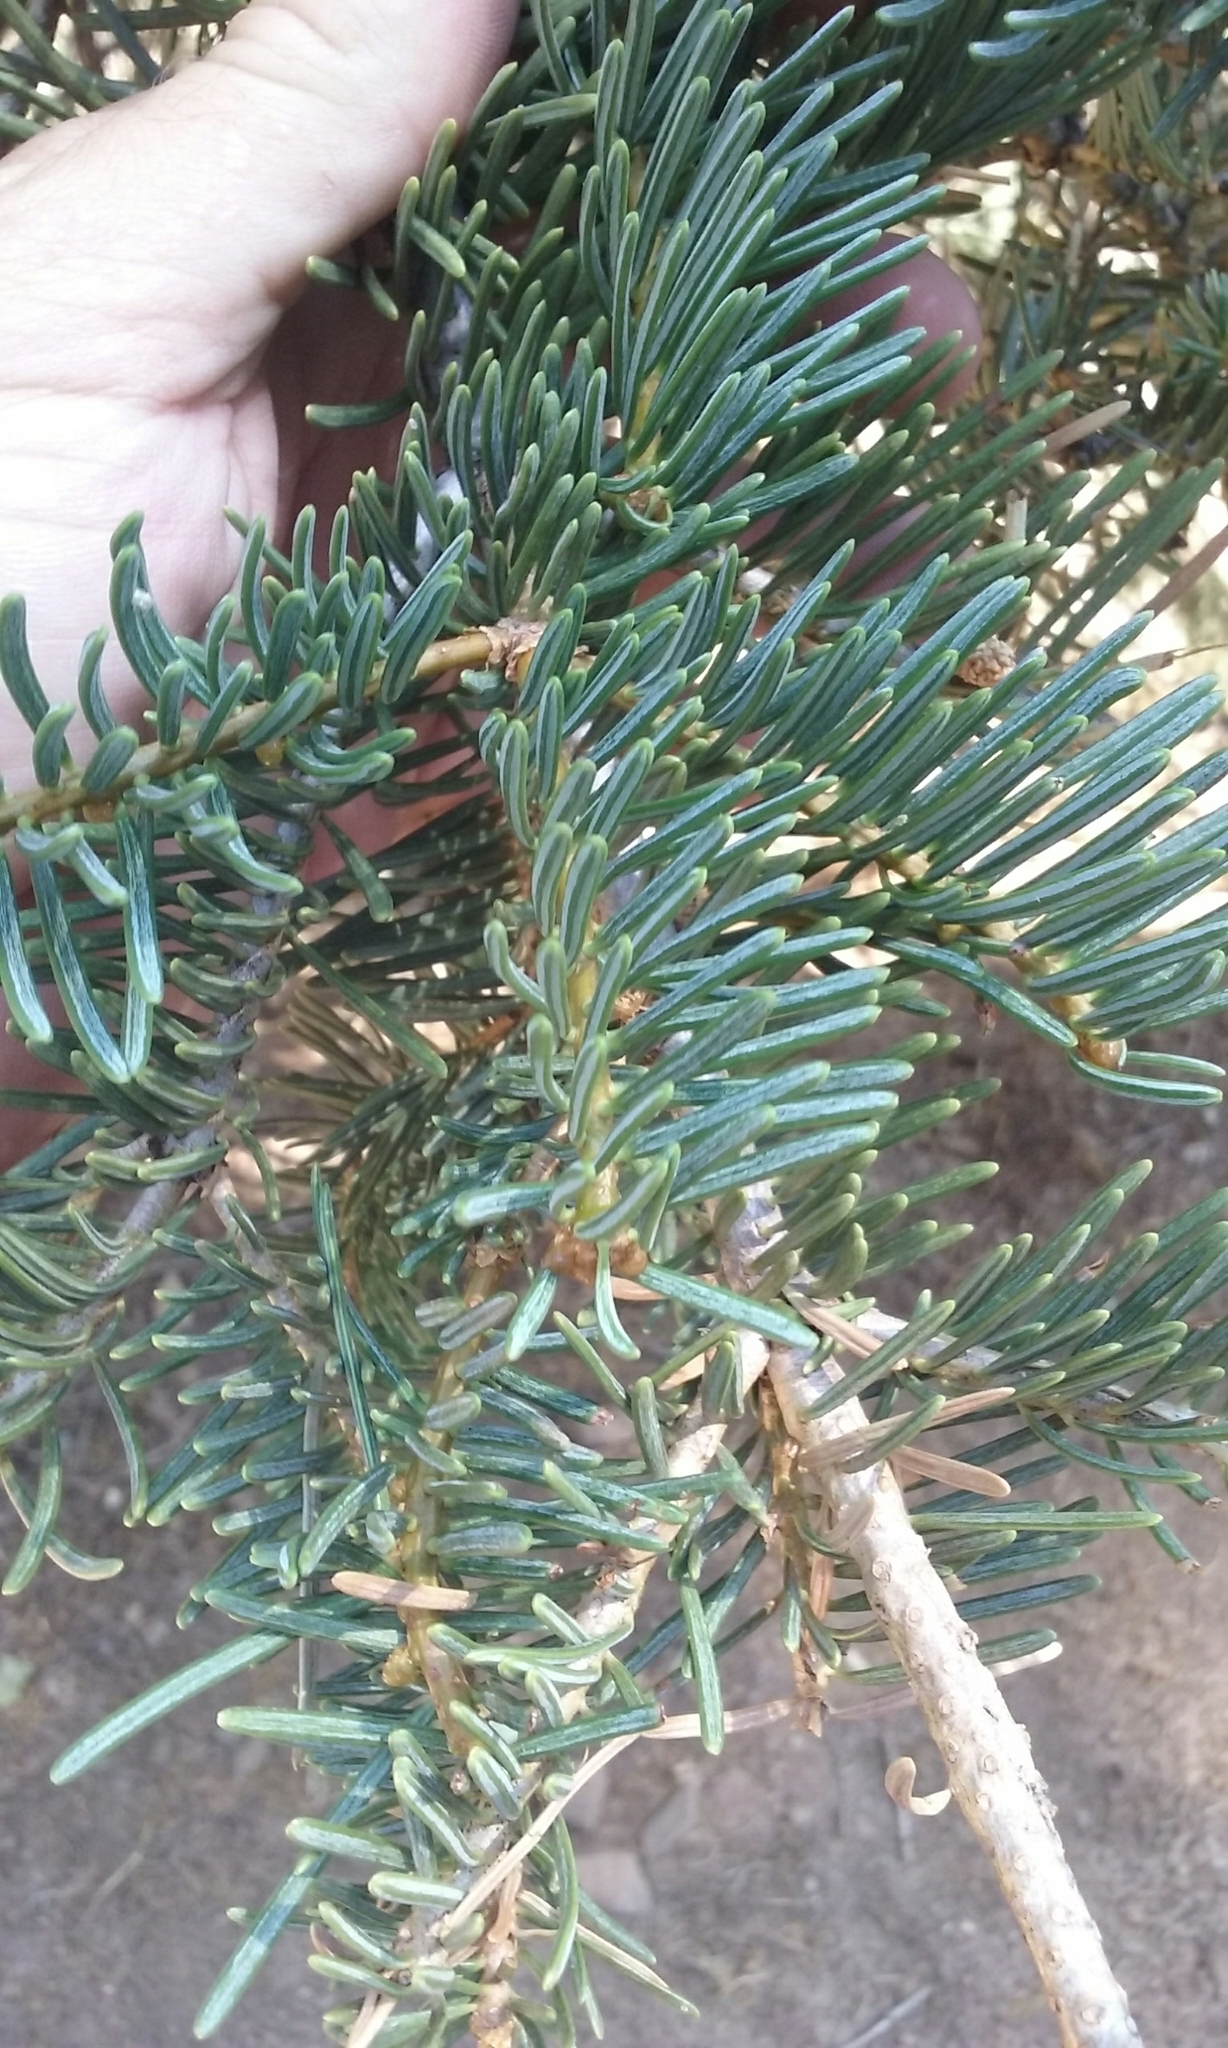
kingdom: Plantae
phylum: Tracheophyta
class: Pinopsida
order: Pinales
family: Pinaceae
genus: Abies
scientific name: Abies concolor
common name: Colorado fir
